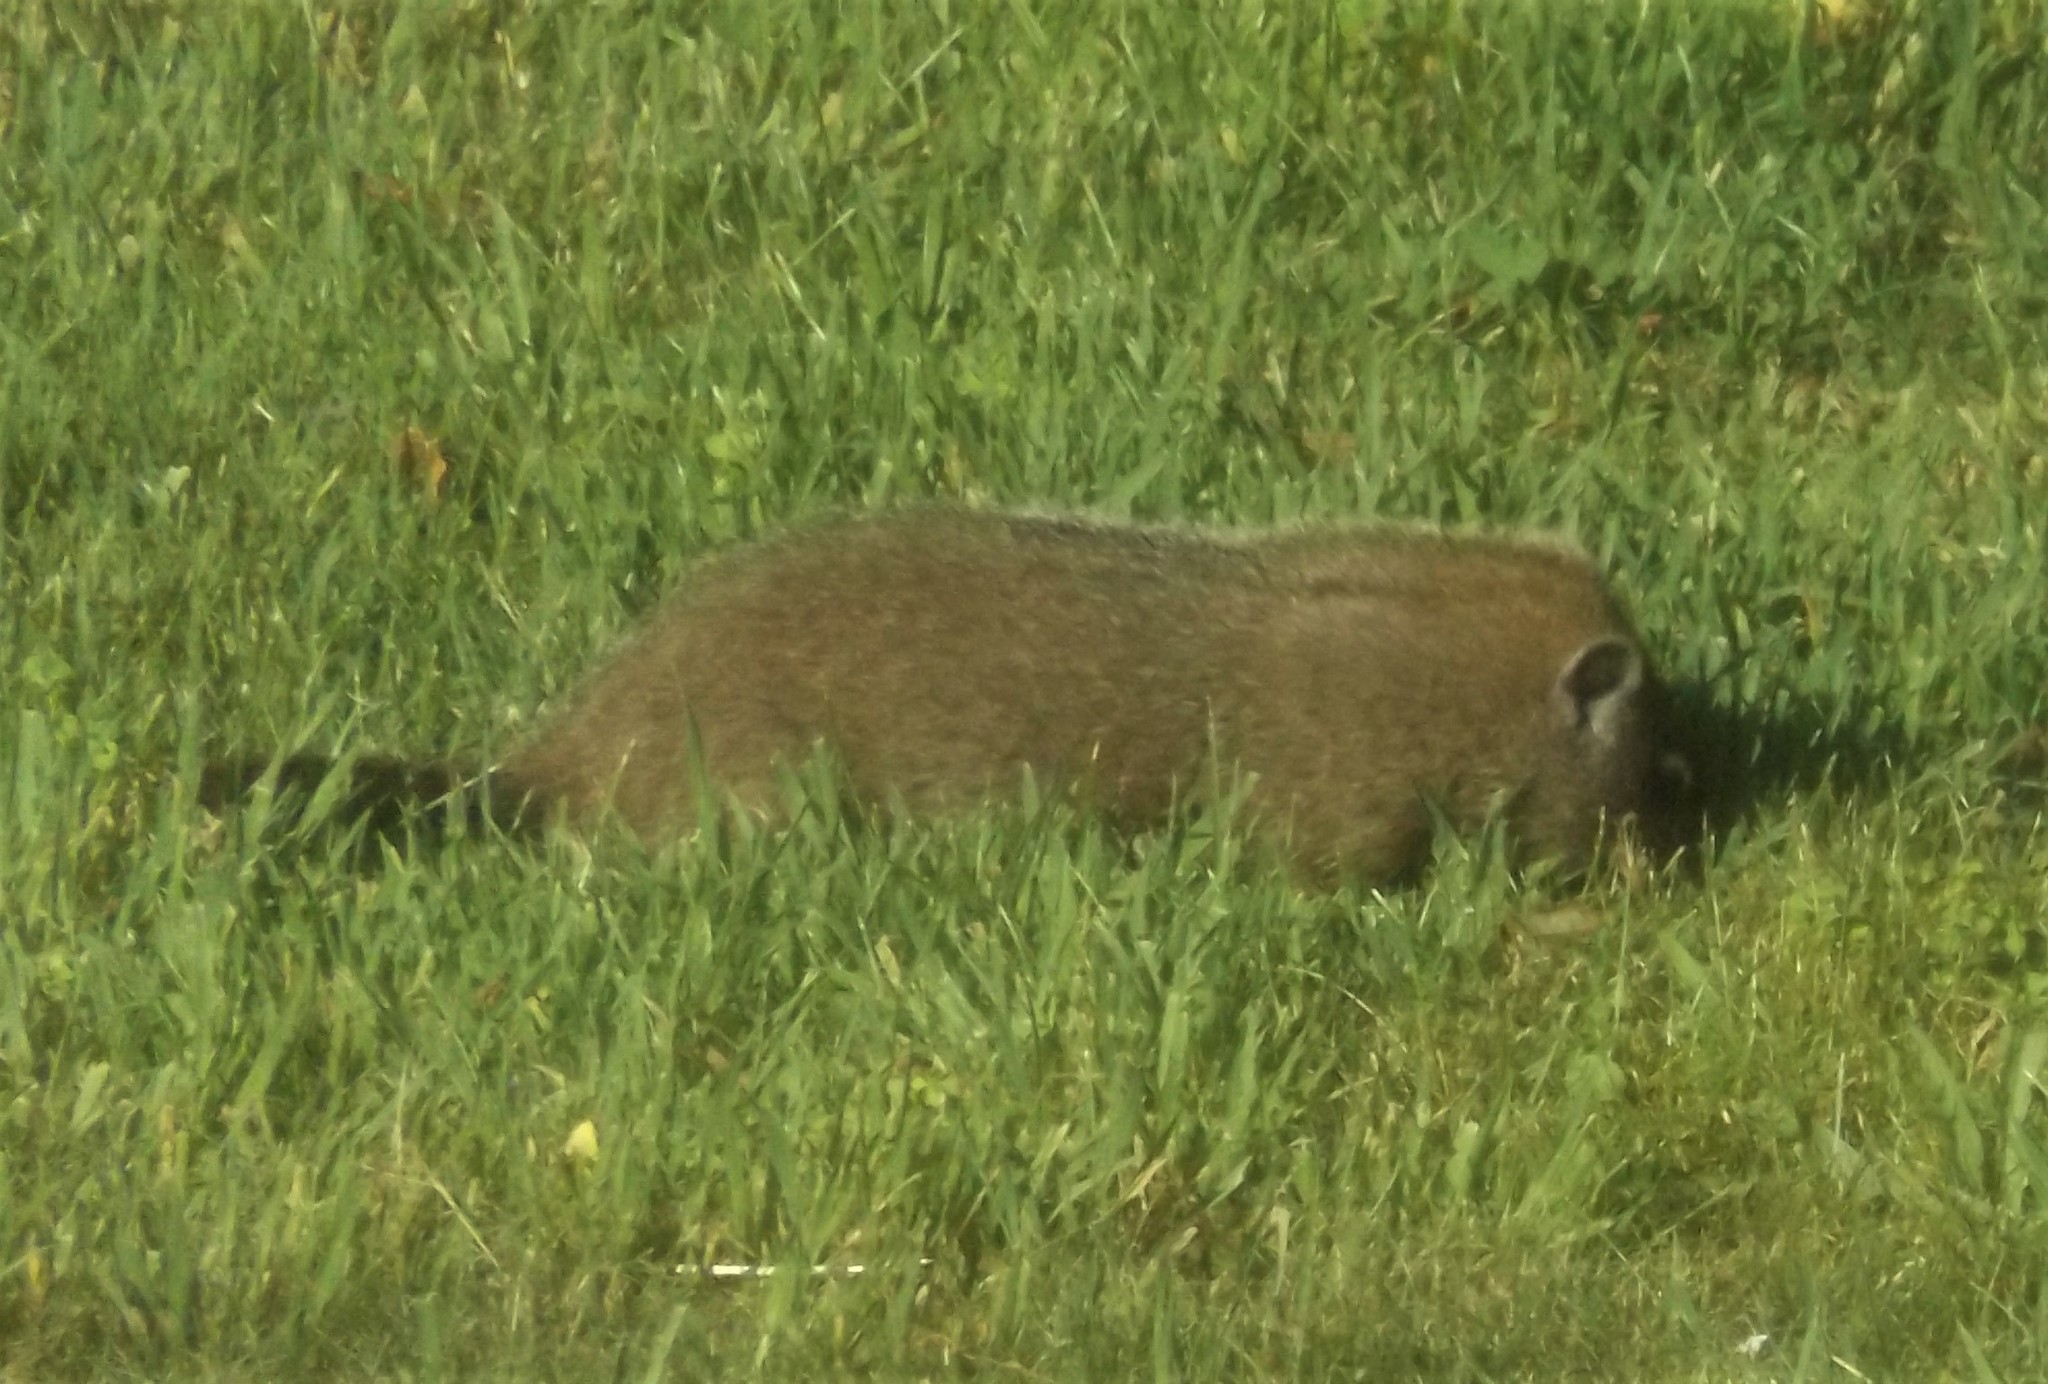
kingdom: Animalia
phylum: Chordata
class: Mammalia
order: Rodentia
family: Sciuridae
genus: Marmota
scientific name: Marmota monax
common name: Groundhog
